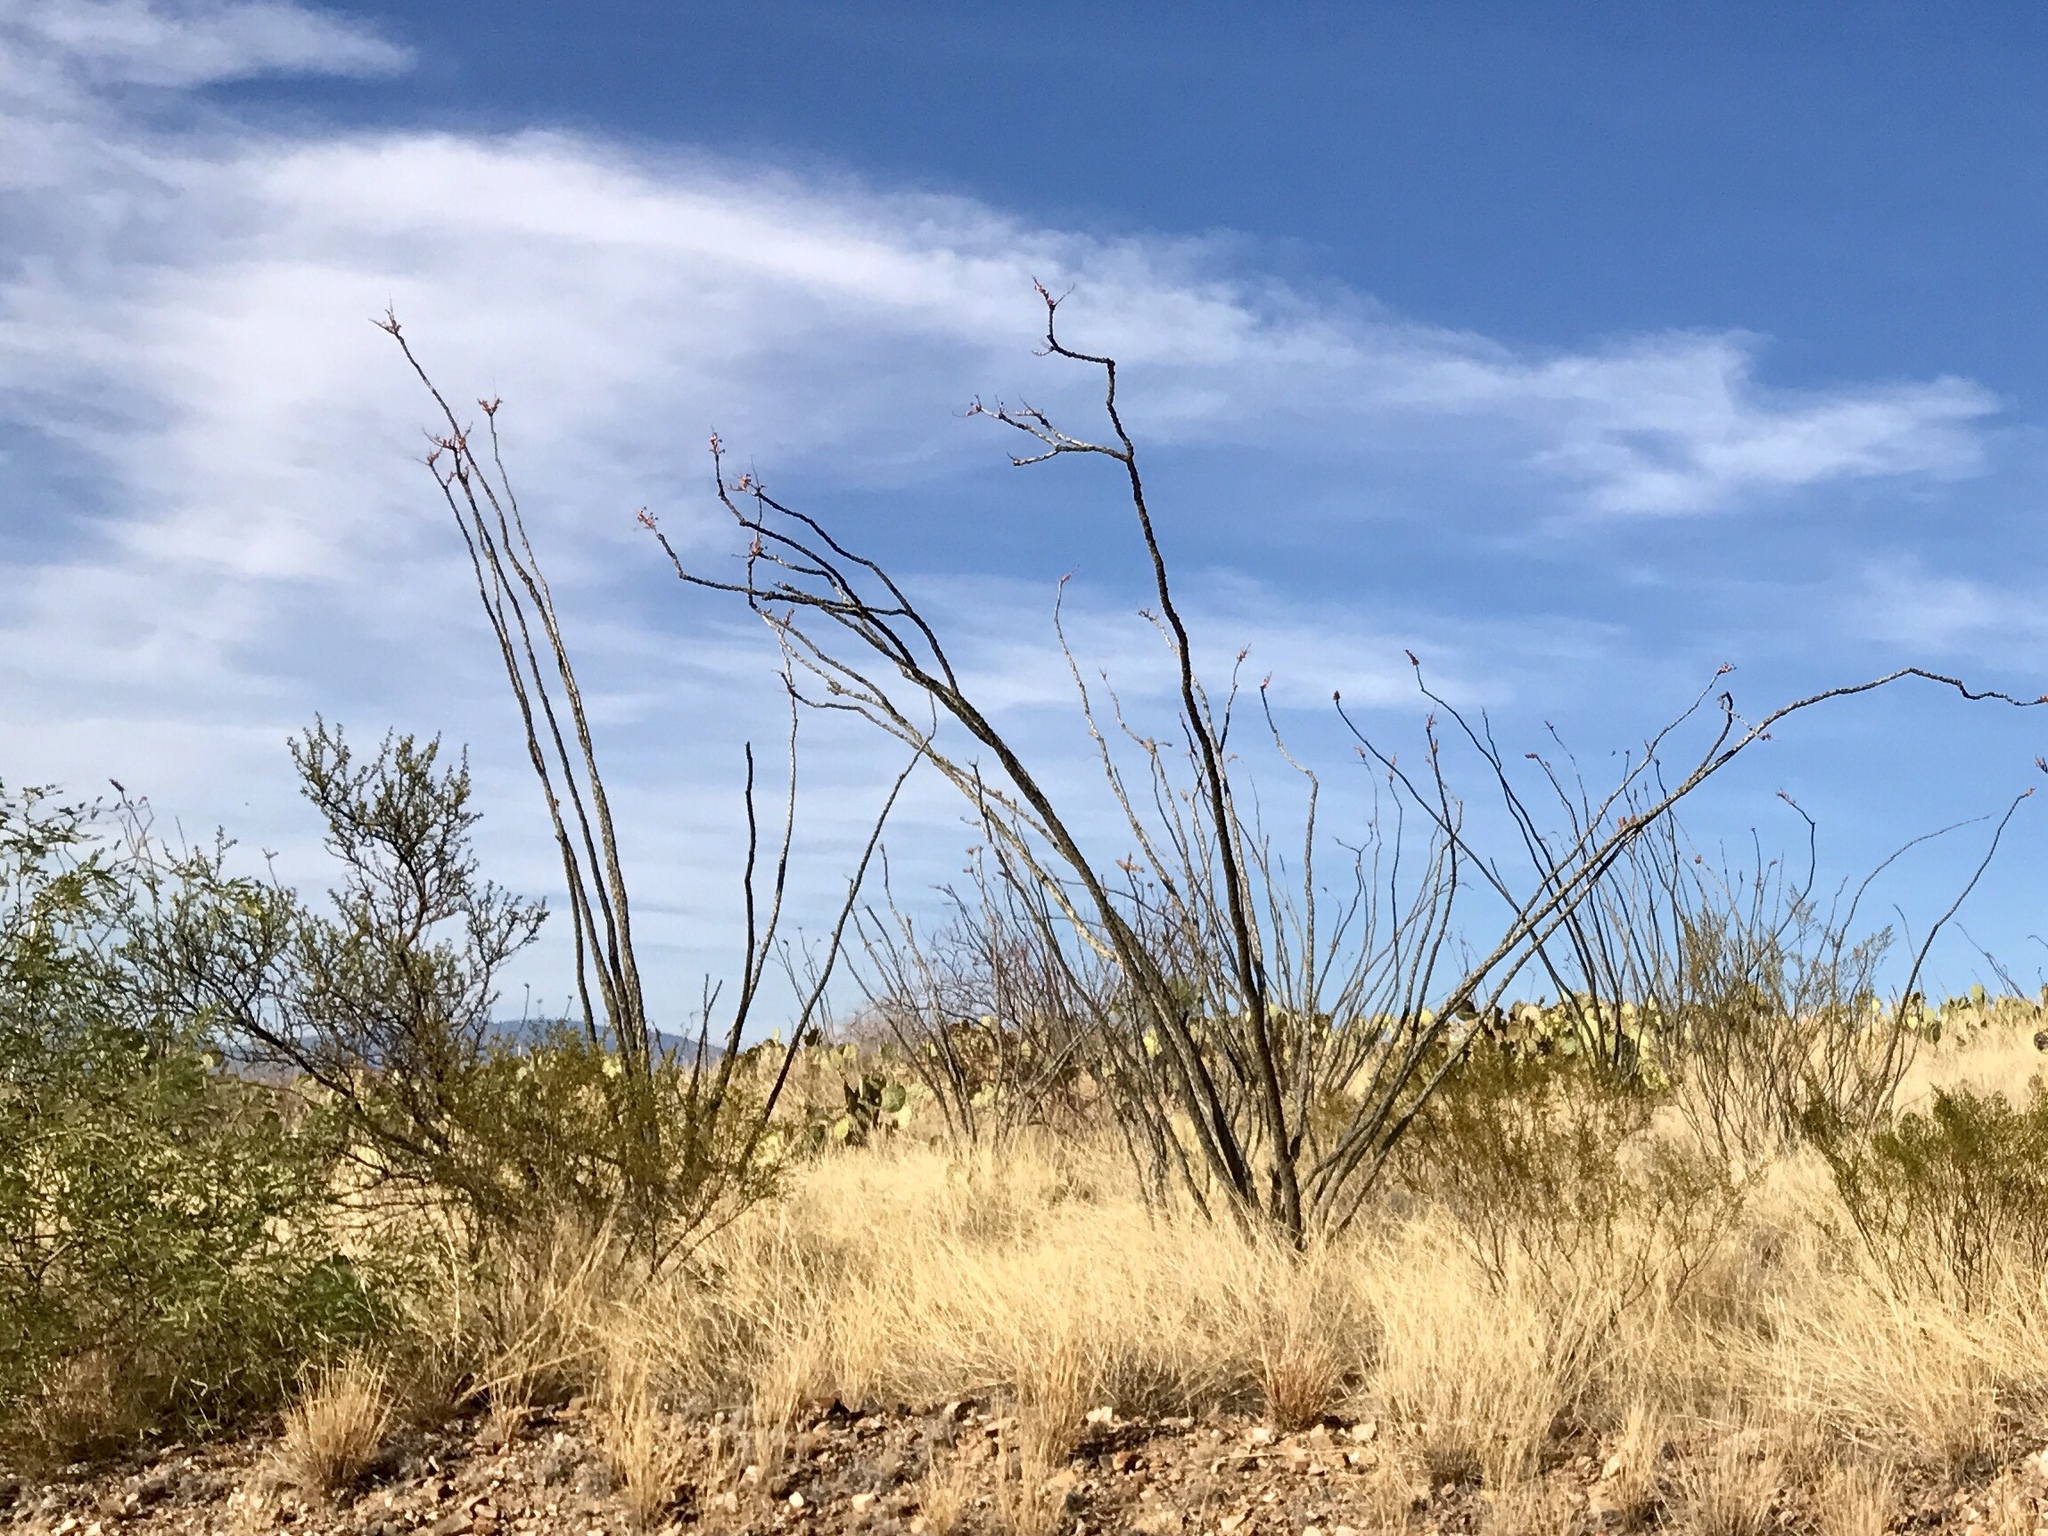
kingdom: Plantae
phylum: Tracheophyta
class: Magnoliopsida
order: Ericales
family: Fouquieriaceae
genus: Fouquieria
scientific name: Fouquieria splendens
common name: Vine-cactus
